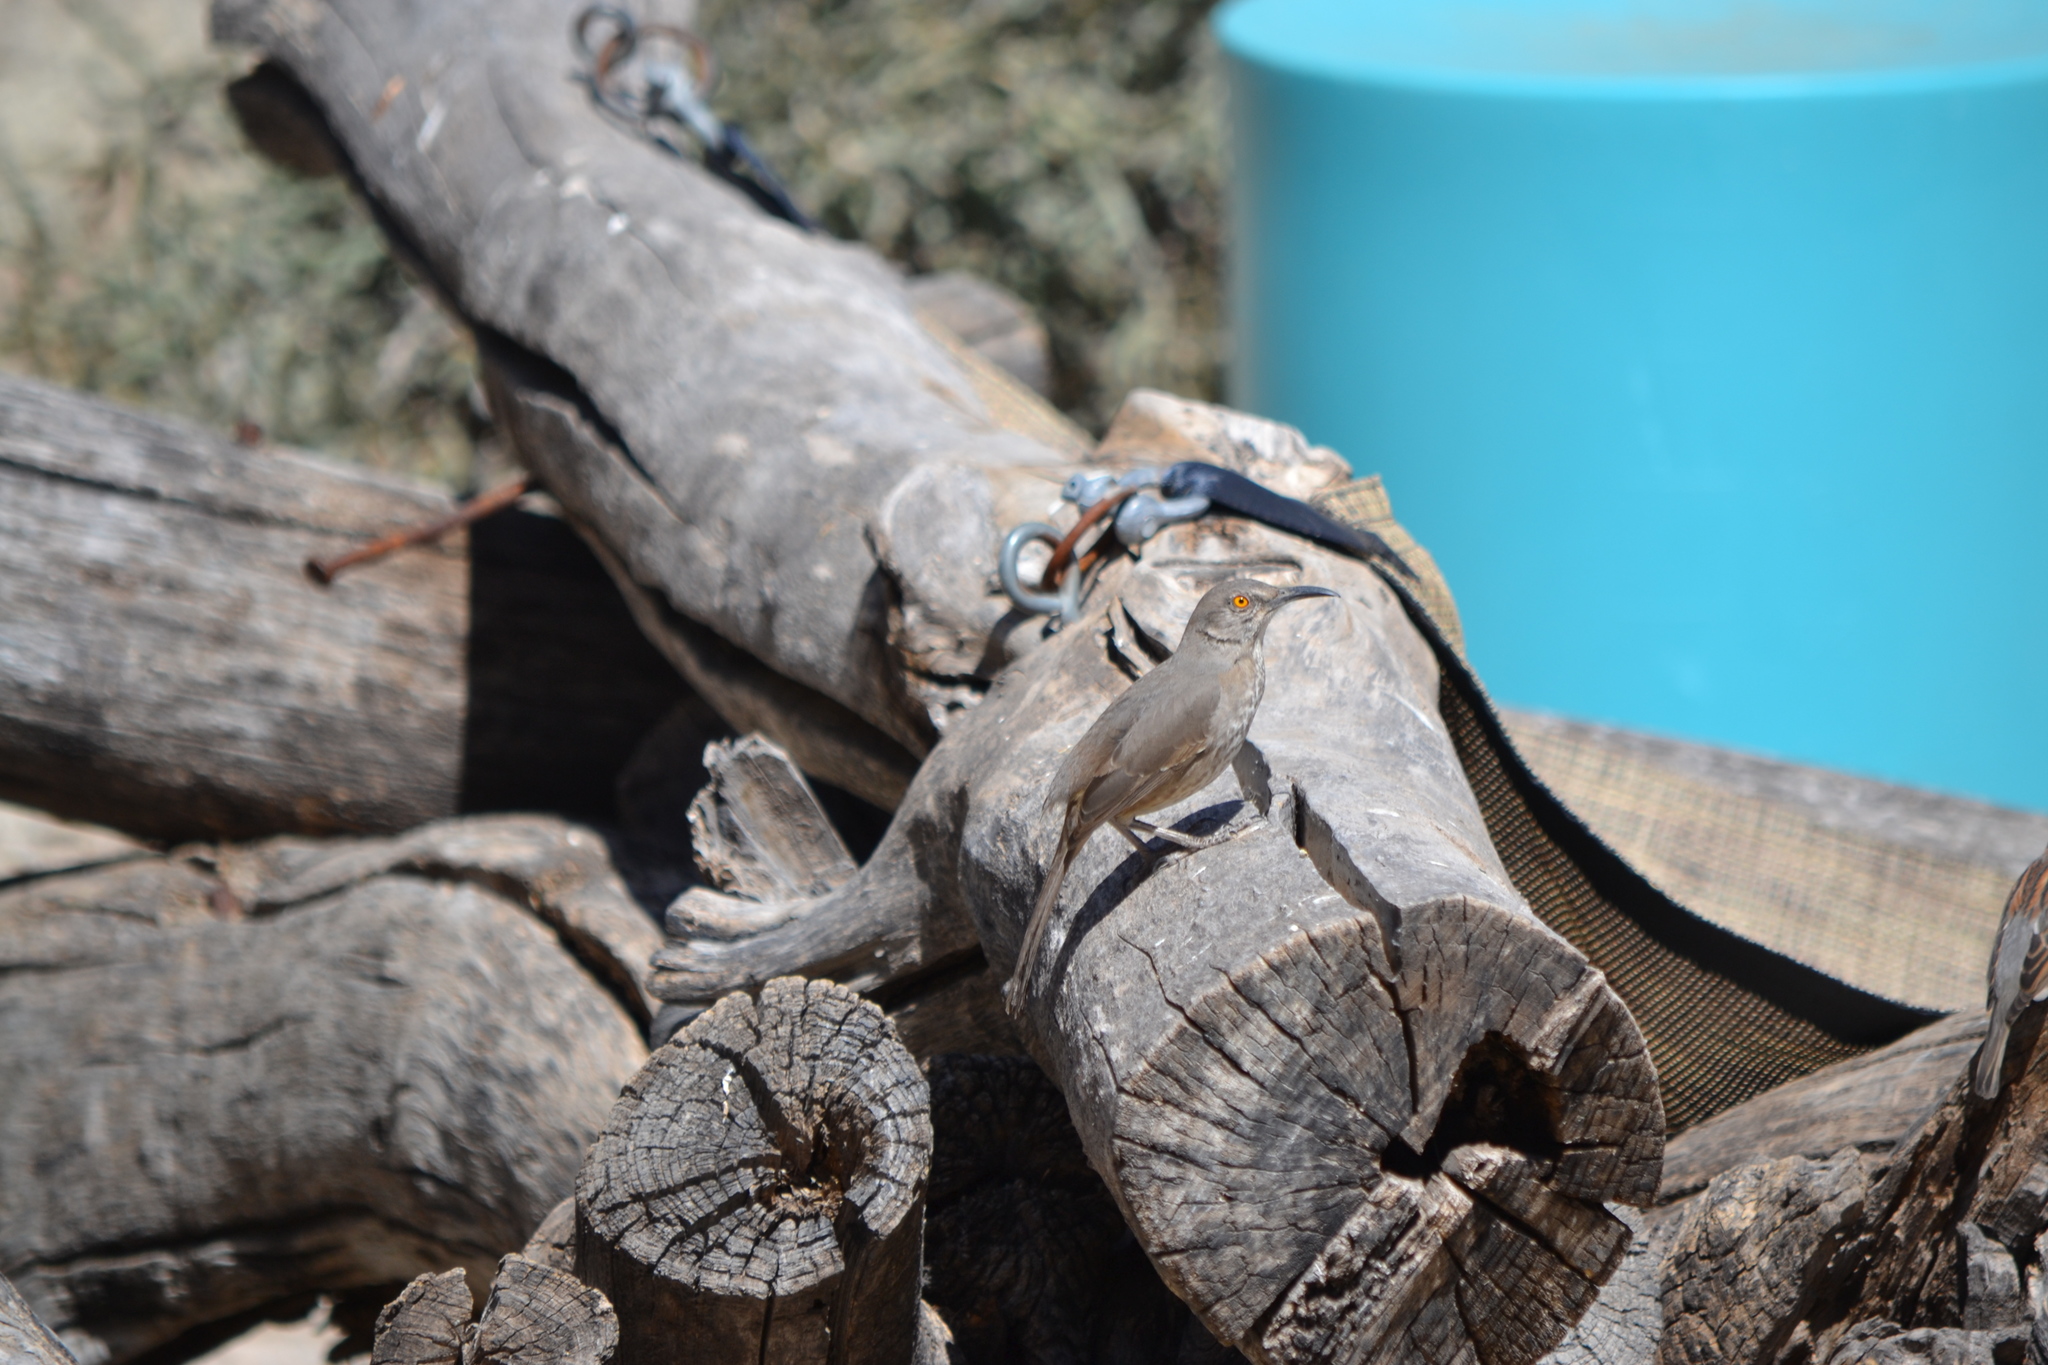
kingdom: Animalia
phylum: Chordata
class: Aves
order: Passeriformes
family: Mimidae
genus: Toxostoma
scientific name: Toxostoma curvirostre
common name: Curve-billed thrasher
